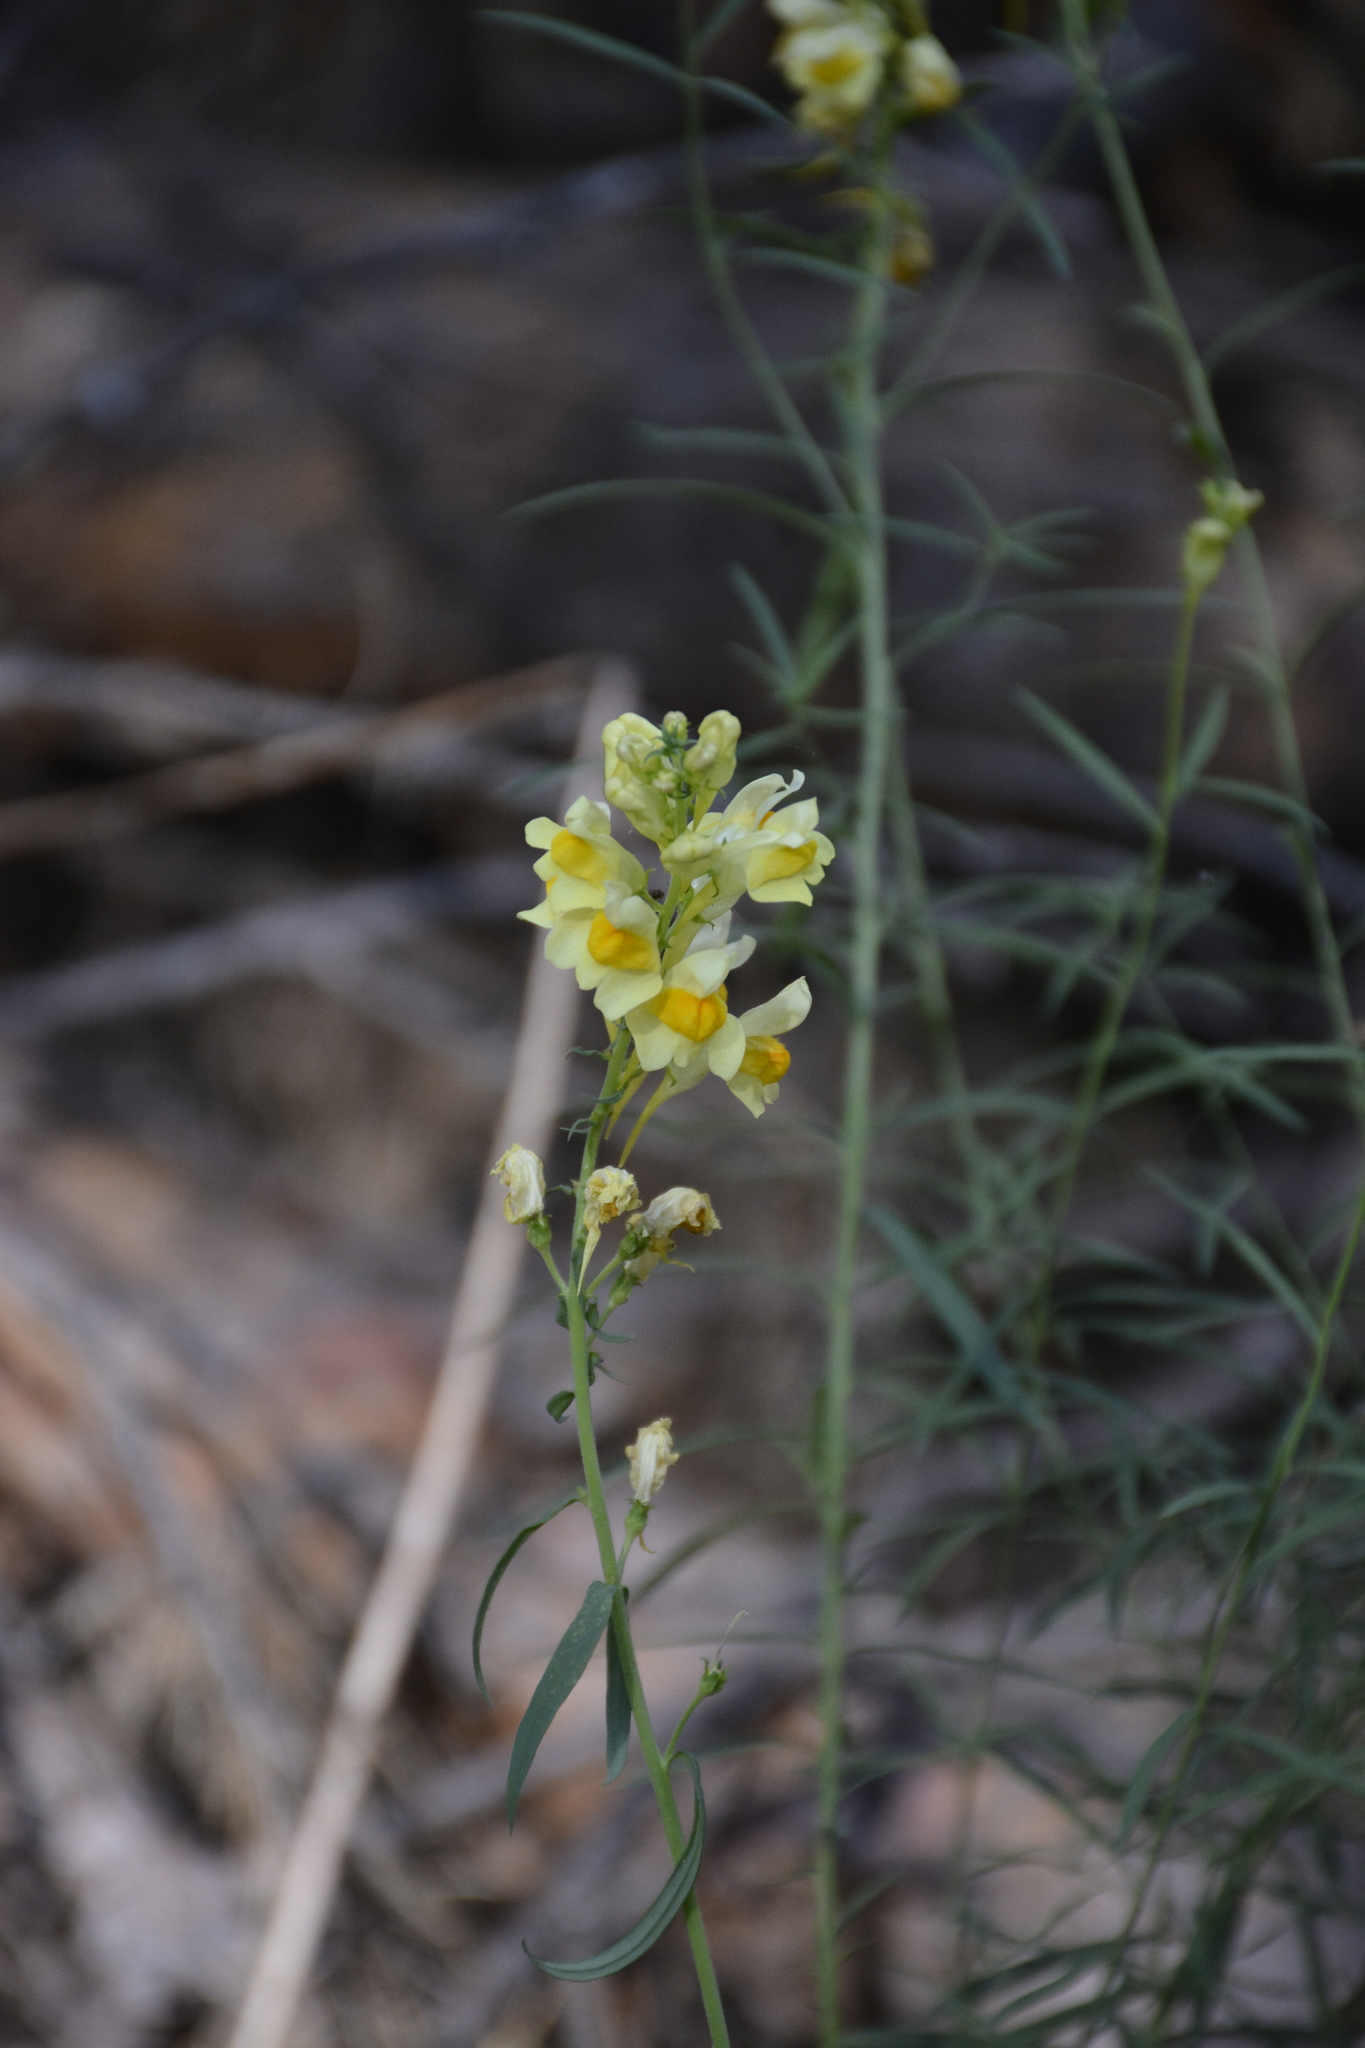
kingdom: Plantae
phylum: Tracheophyta
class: Magnoliopsida
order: Lamiales
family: Plantaginaceae
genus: Linaria
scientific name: Linaria vulgaris
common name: Butter and eggs
